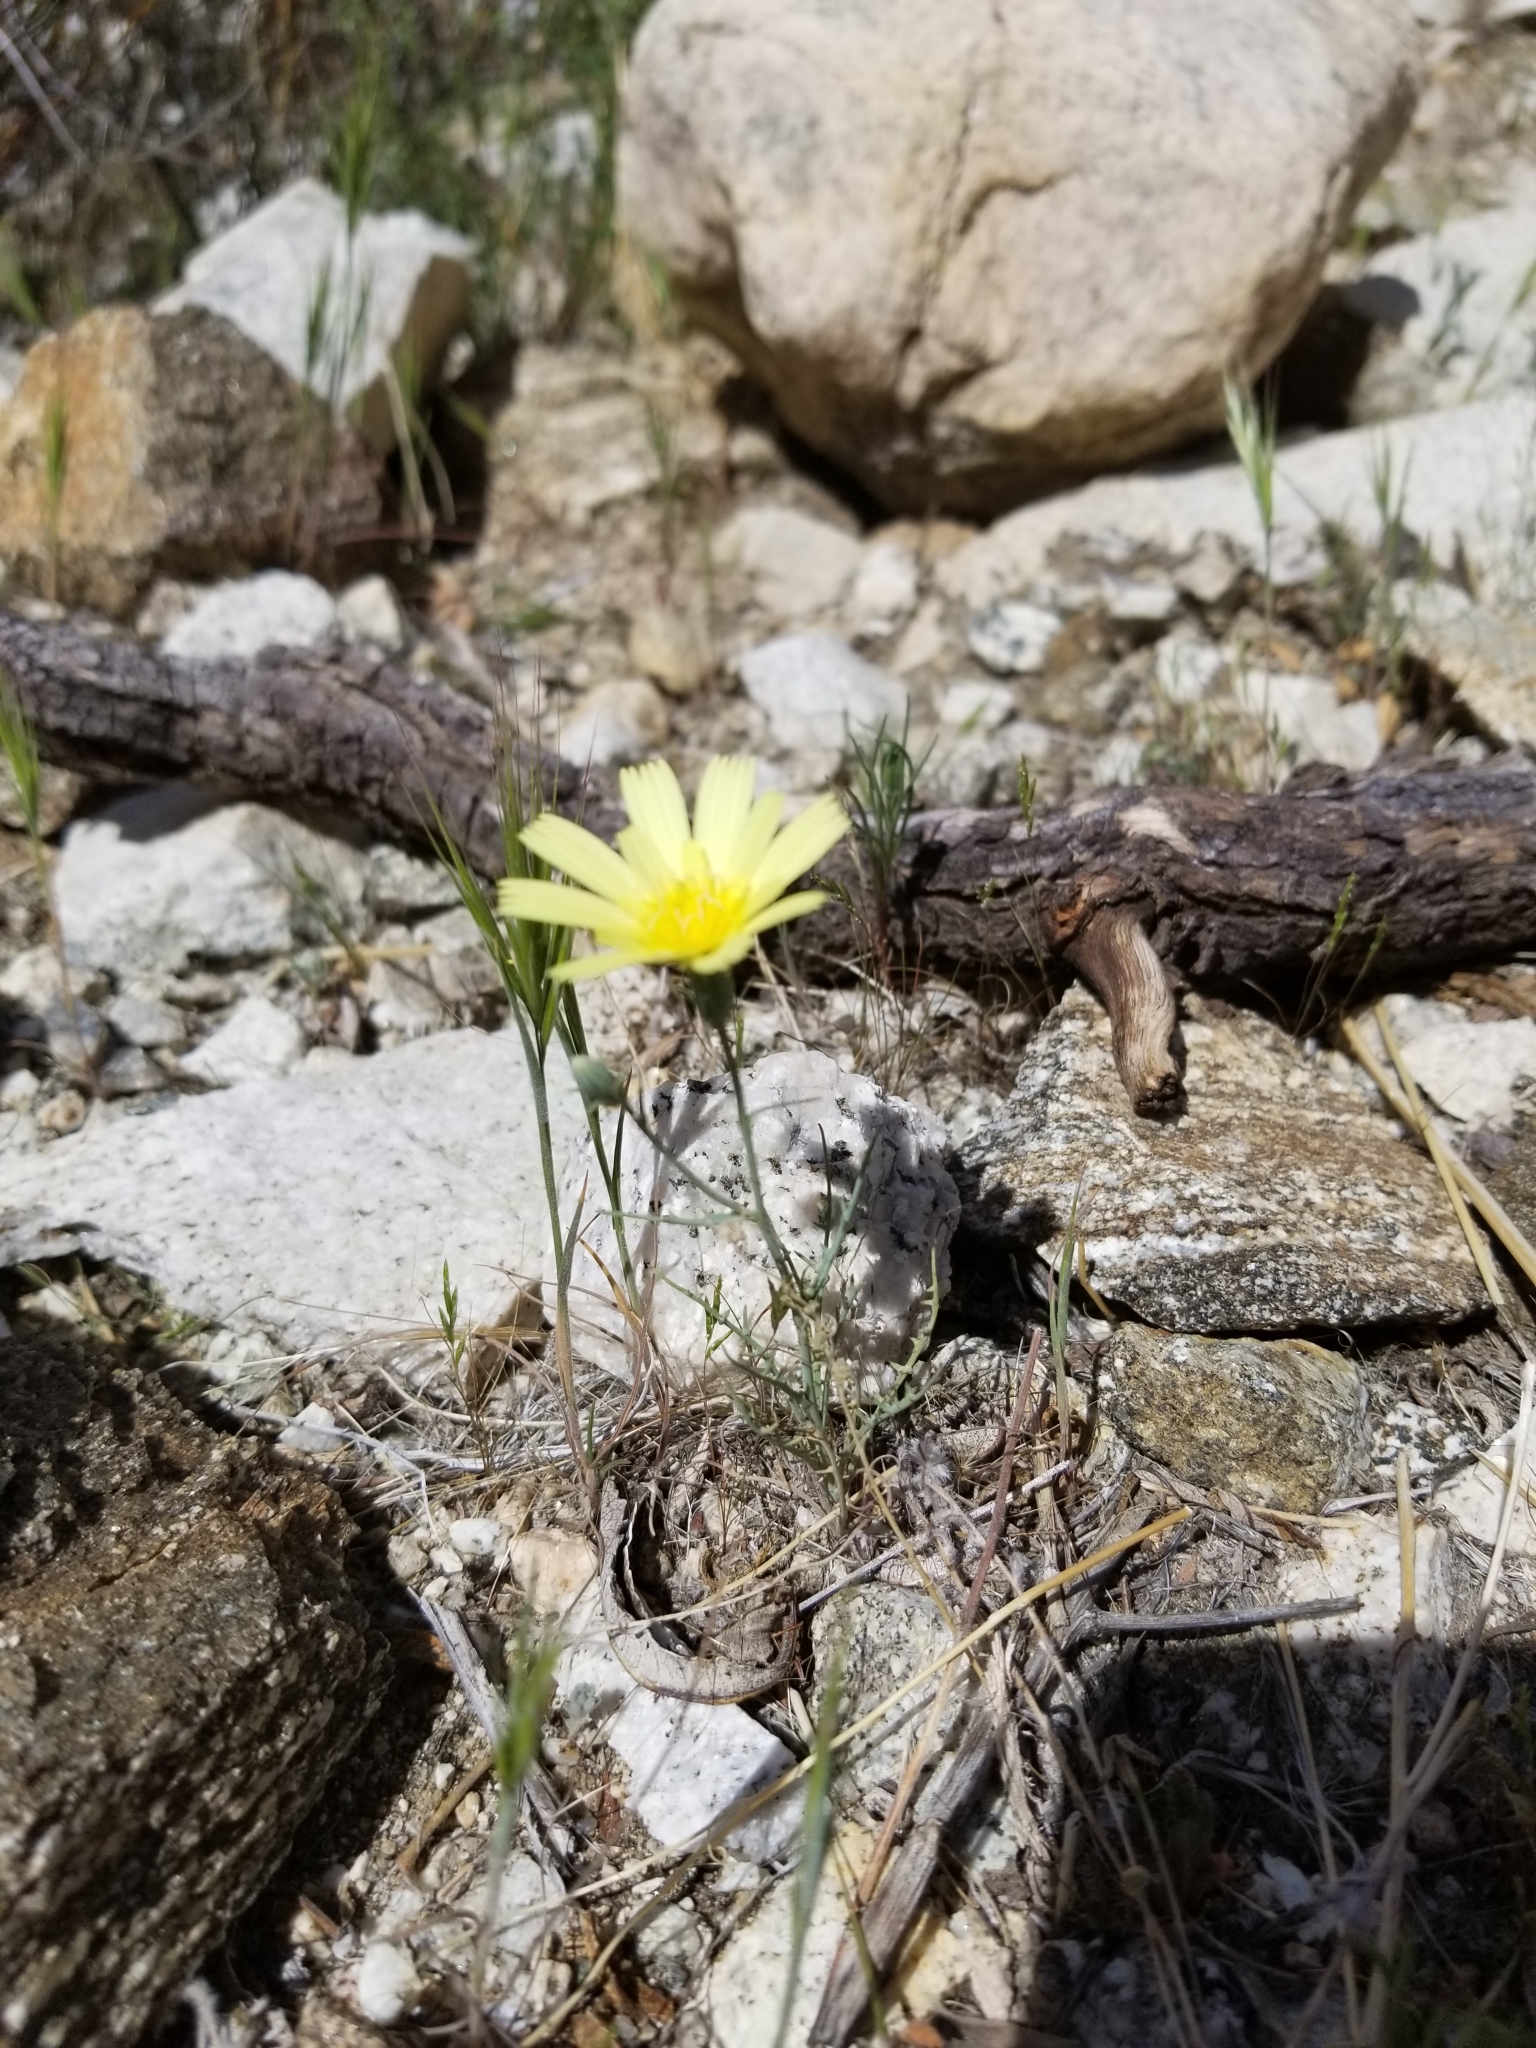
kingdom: Plantae
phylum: Tracheophyta
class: Magnoliopsida
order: Asterales
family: Asteraceae
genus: Calycoseris
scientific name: Calycoseris parryi
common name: Yellow tackstem
